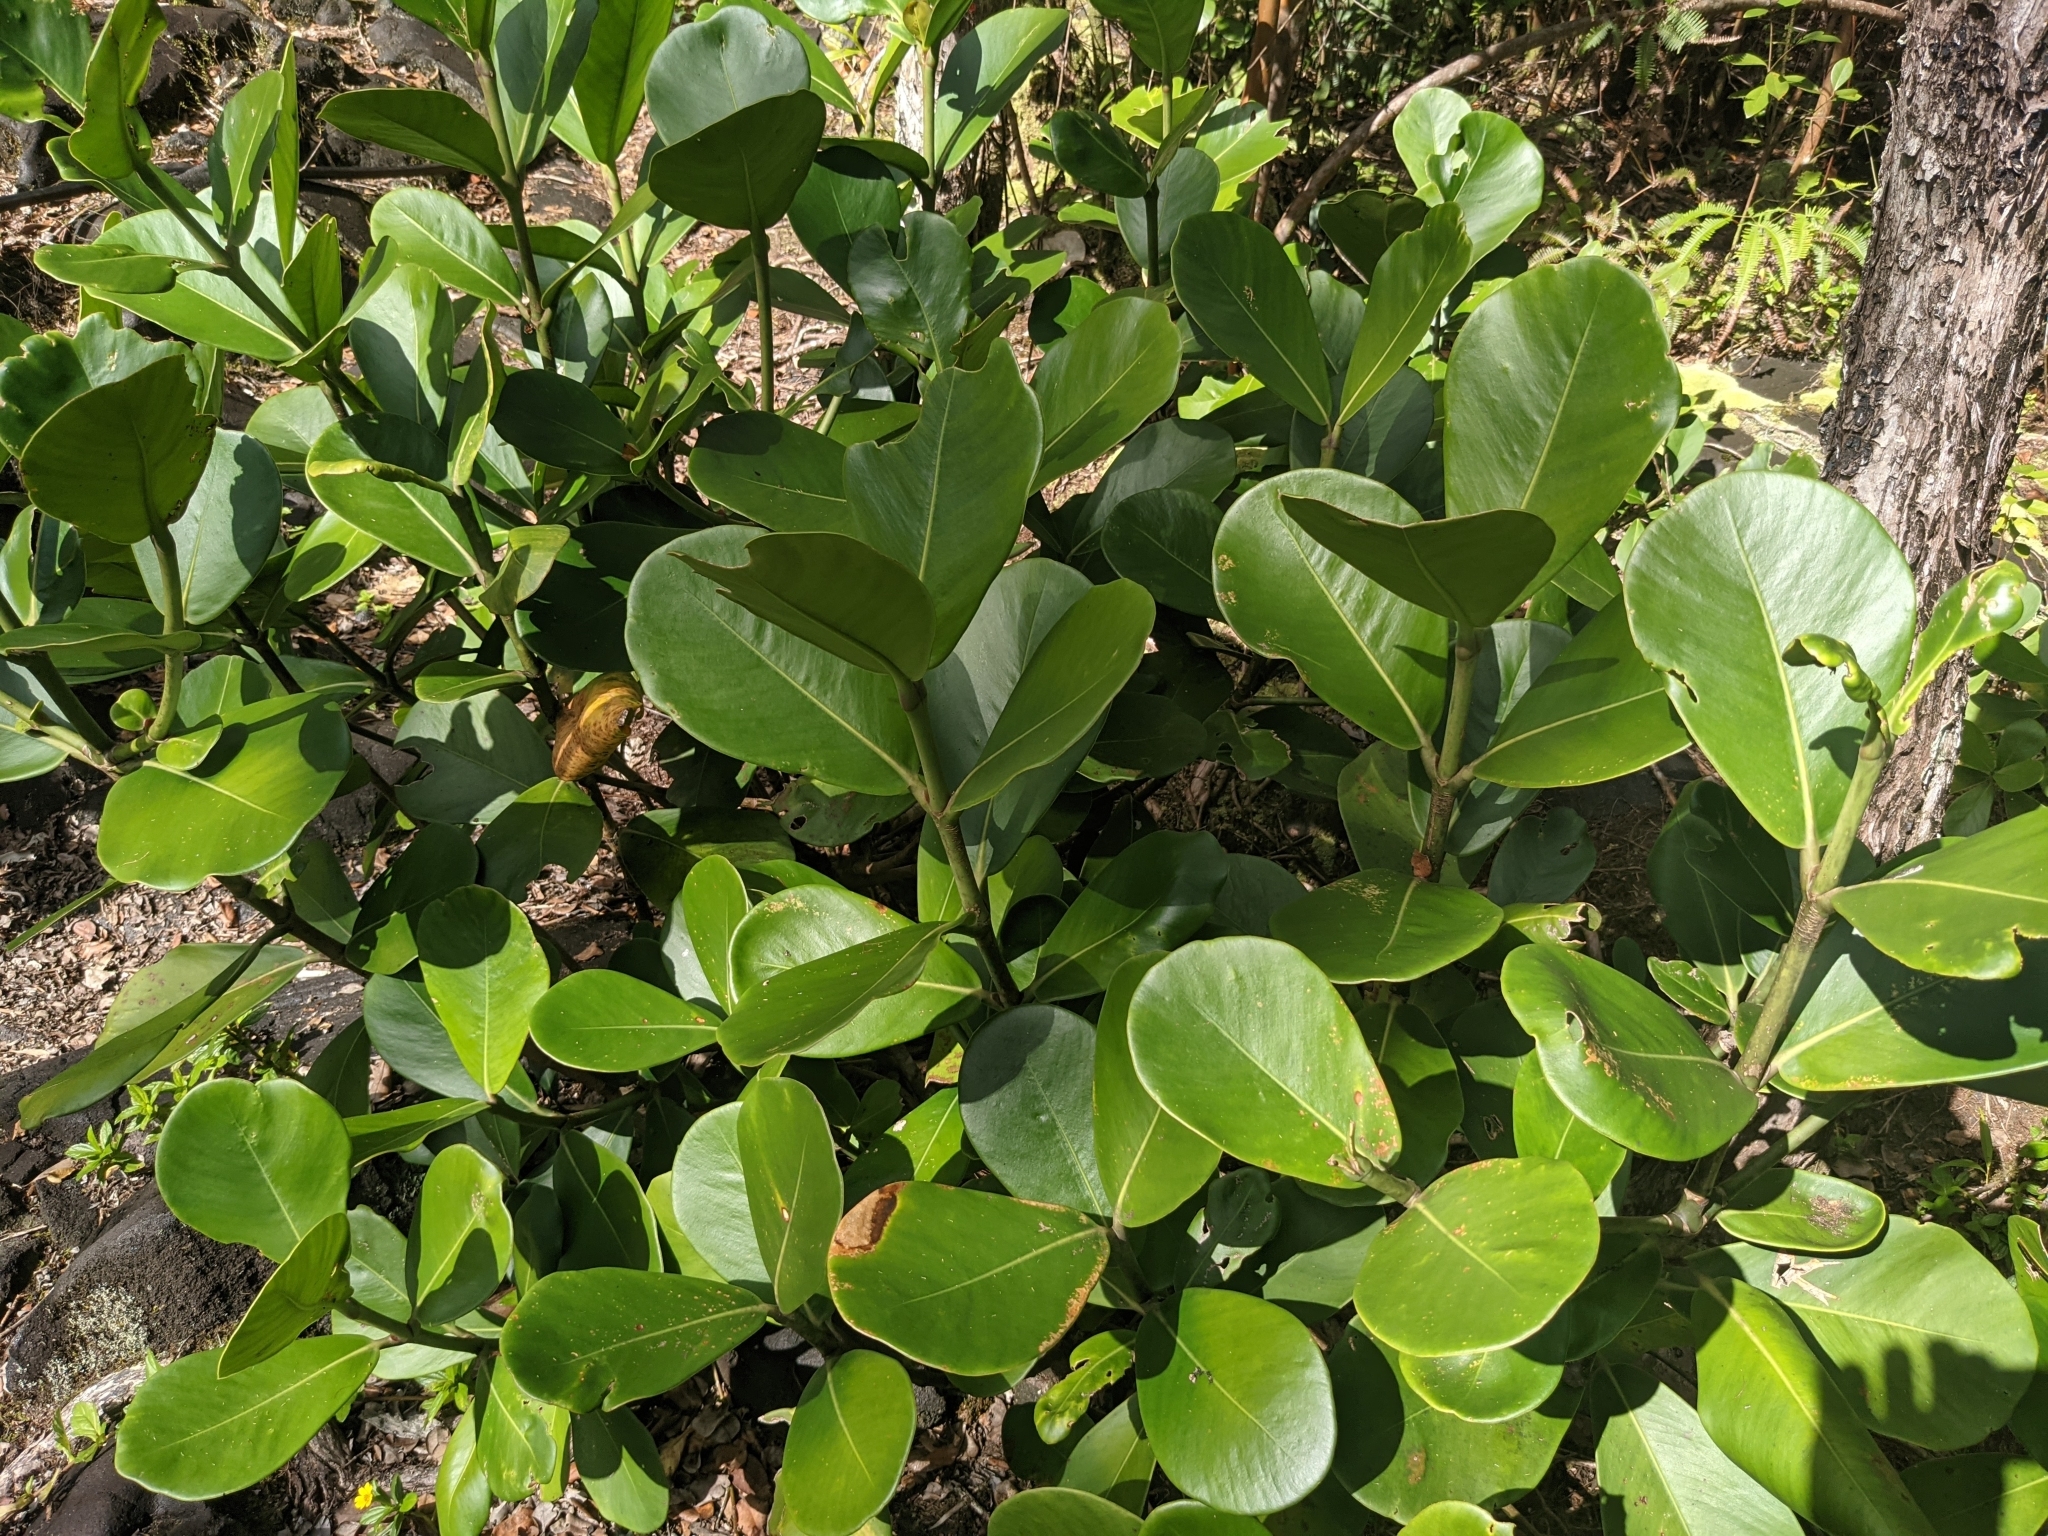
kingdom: Plantae
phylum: Tracheophyta
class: Magnoliopsida
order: Malpighiales
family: Clusiaceae
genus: Clusia
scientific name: Clusia rosea
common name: Scotch attorney
